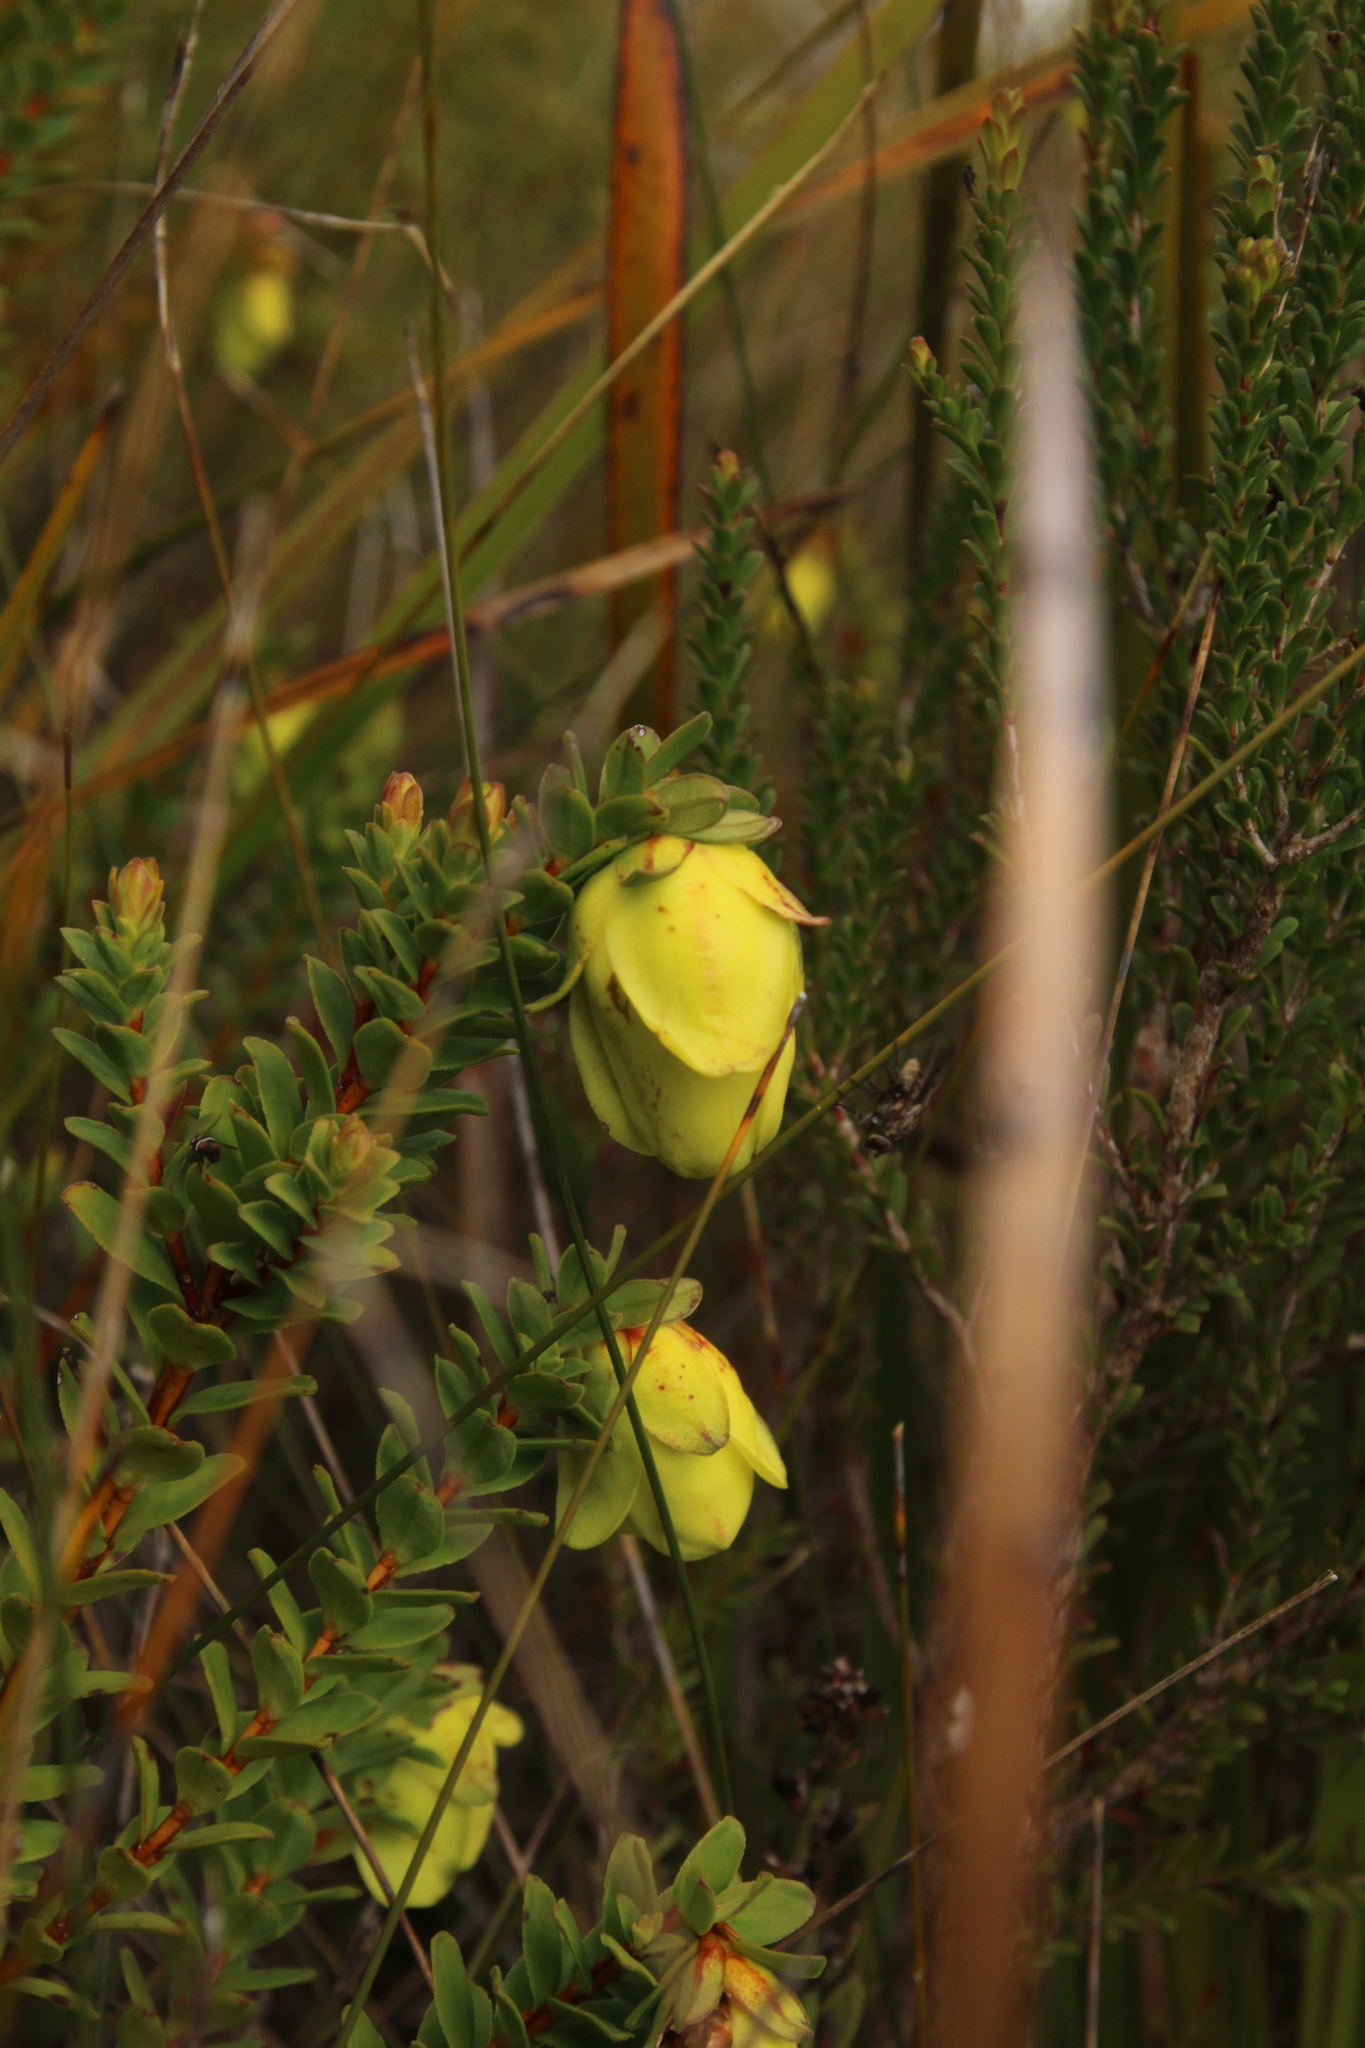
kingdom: Plantae
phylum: Tracheophyta
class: Magnoliopsida
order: Myrtales
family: Myrtaceae
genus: Darwinia
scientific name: Darwinia collina
